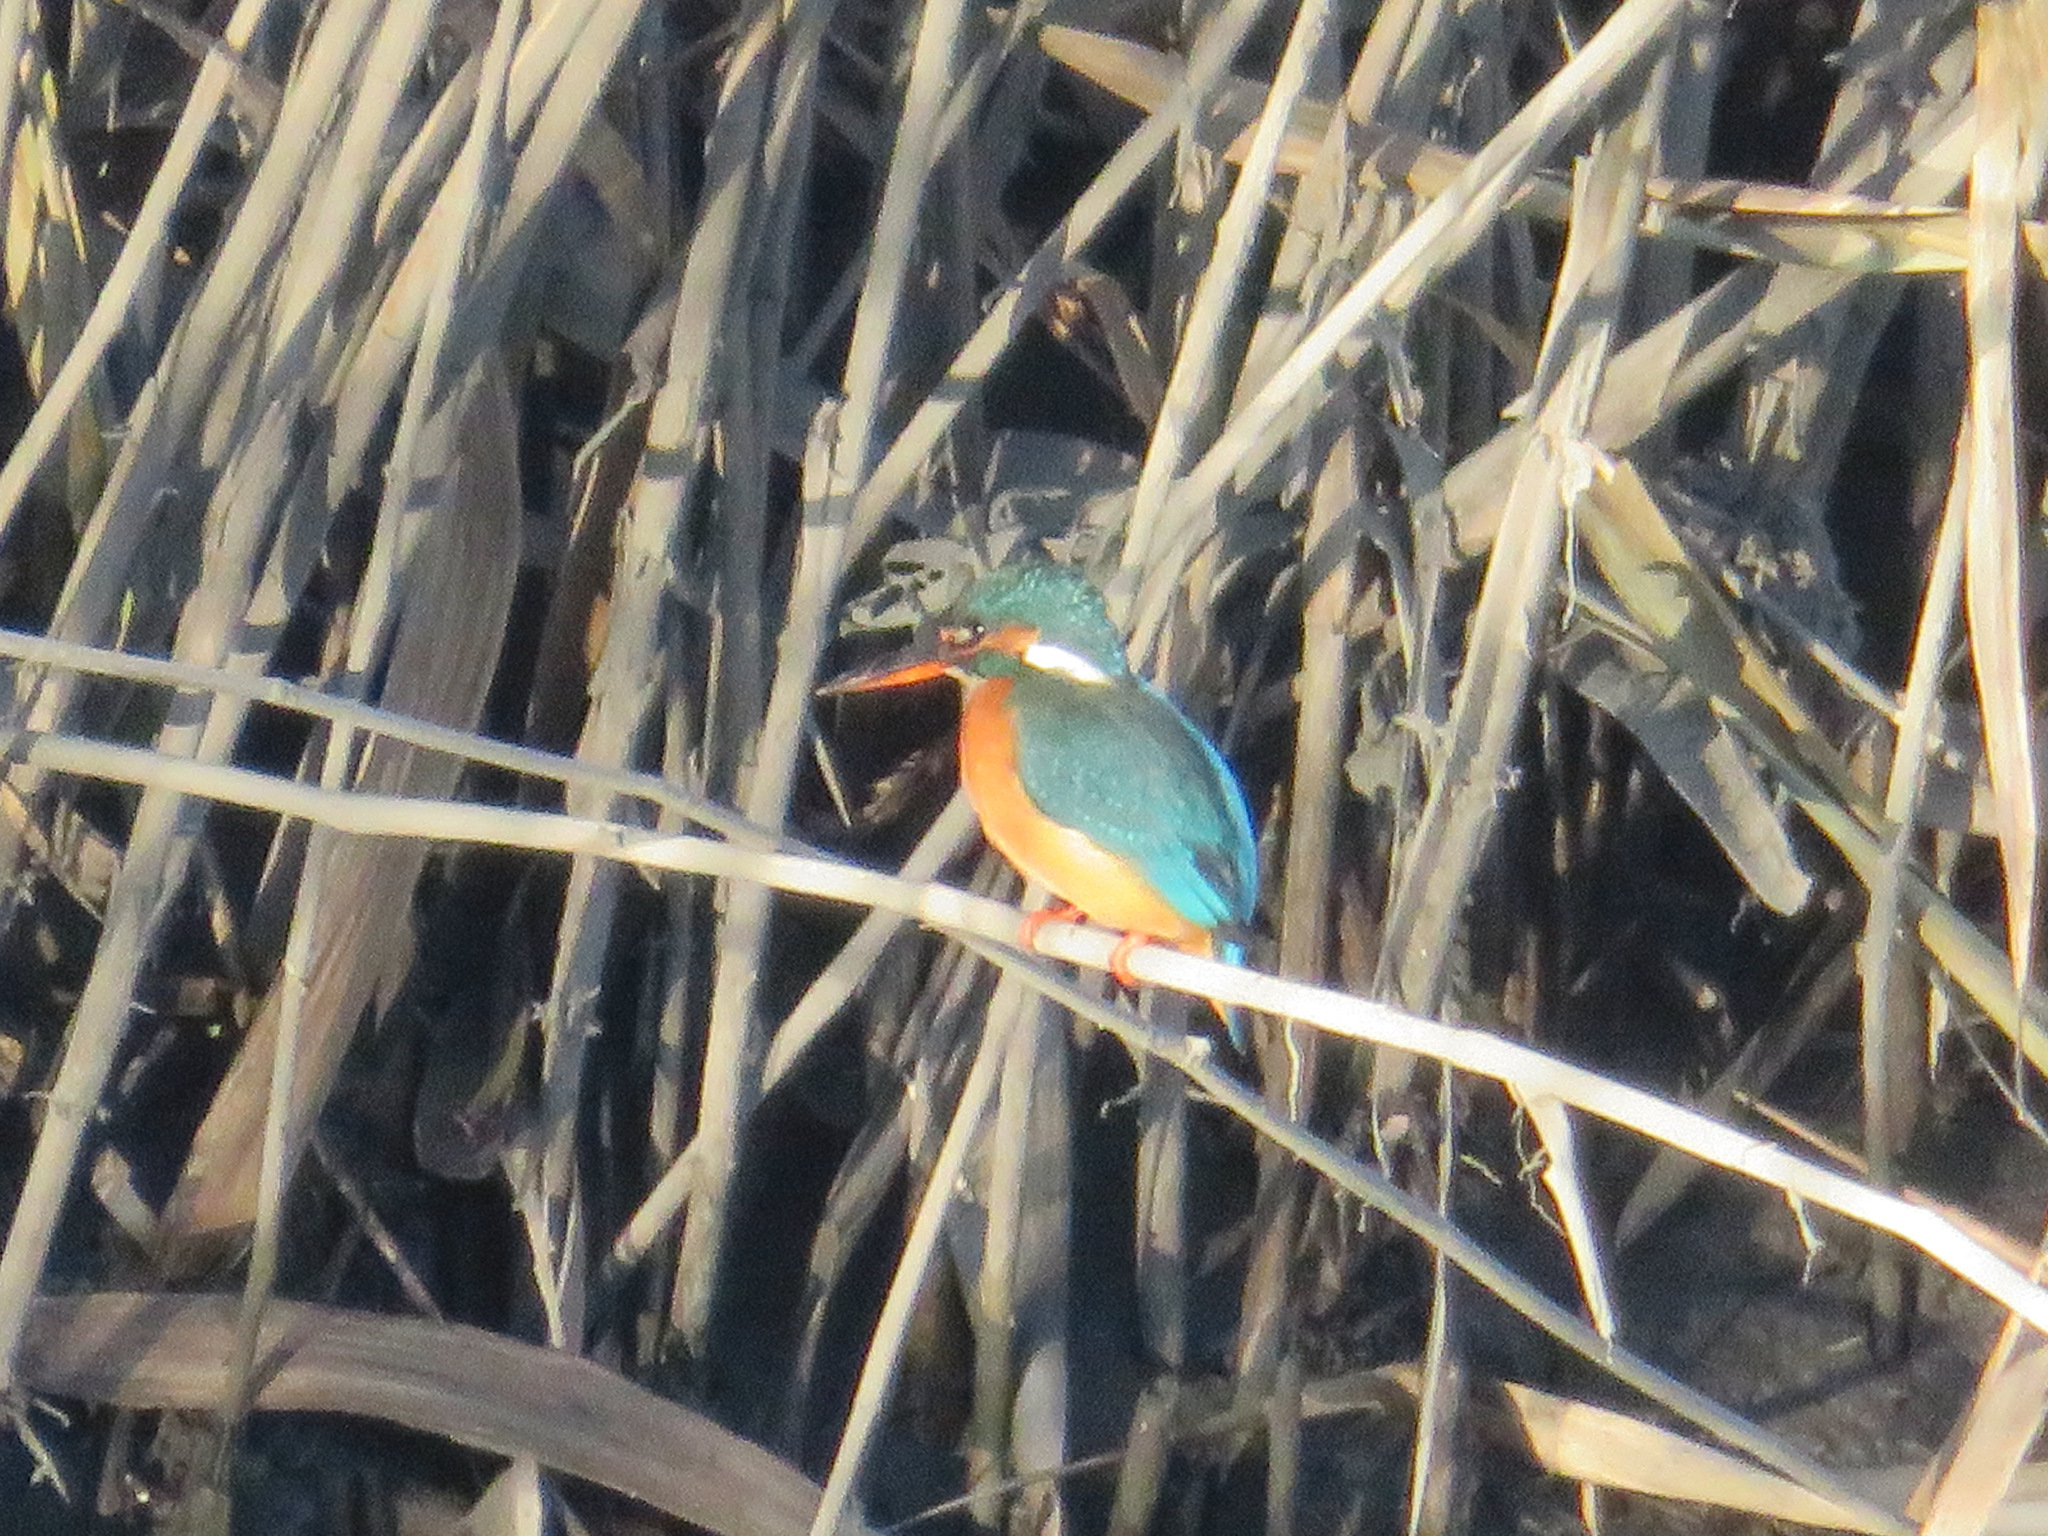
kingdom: Animalia
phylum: Chordata
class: Aves
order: Coraciiformes
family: Alcedinidae
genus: Alcedo
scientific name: Alcedo atthis
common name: Common kingfisher
